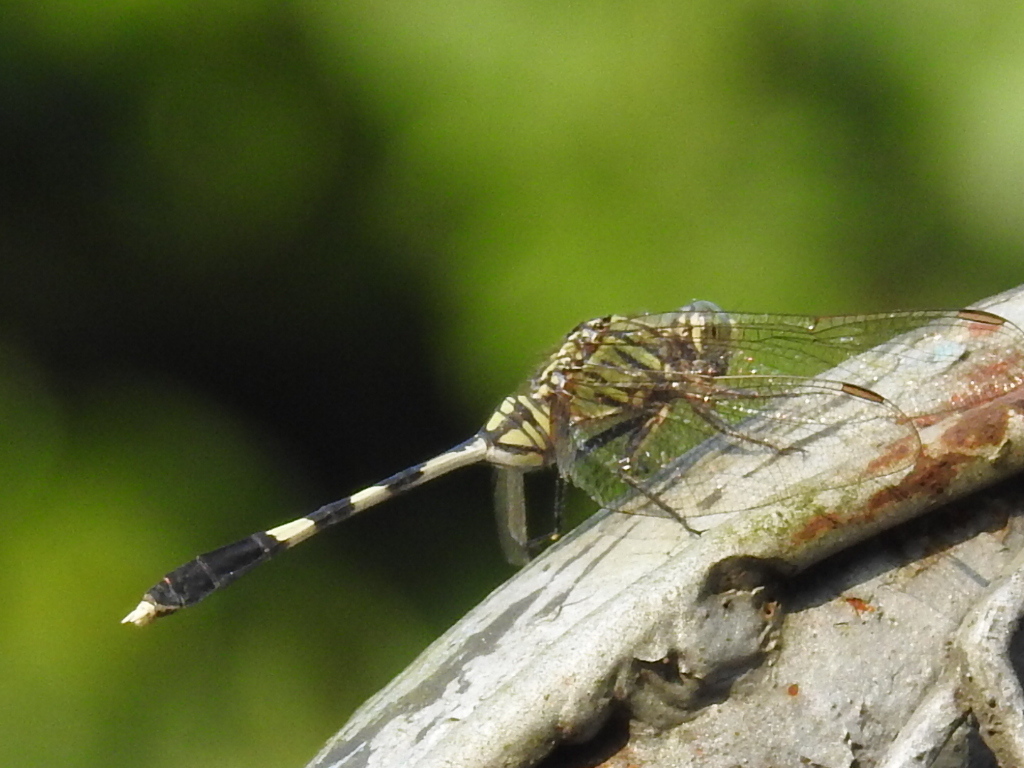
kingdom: Animalia
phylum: Arthropoda
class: Insecta
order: Odonata
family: Libellulidae
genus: Orthetrum
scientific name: Orthetrum sabina
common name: Slender skimmer
